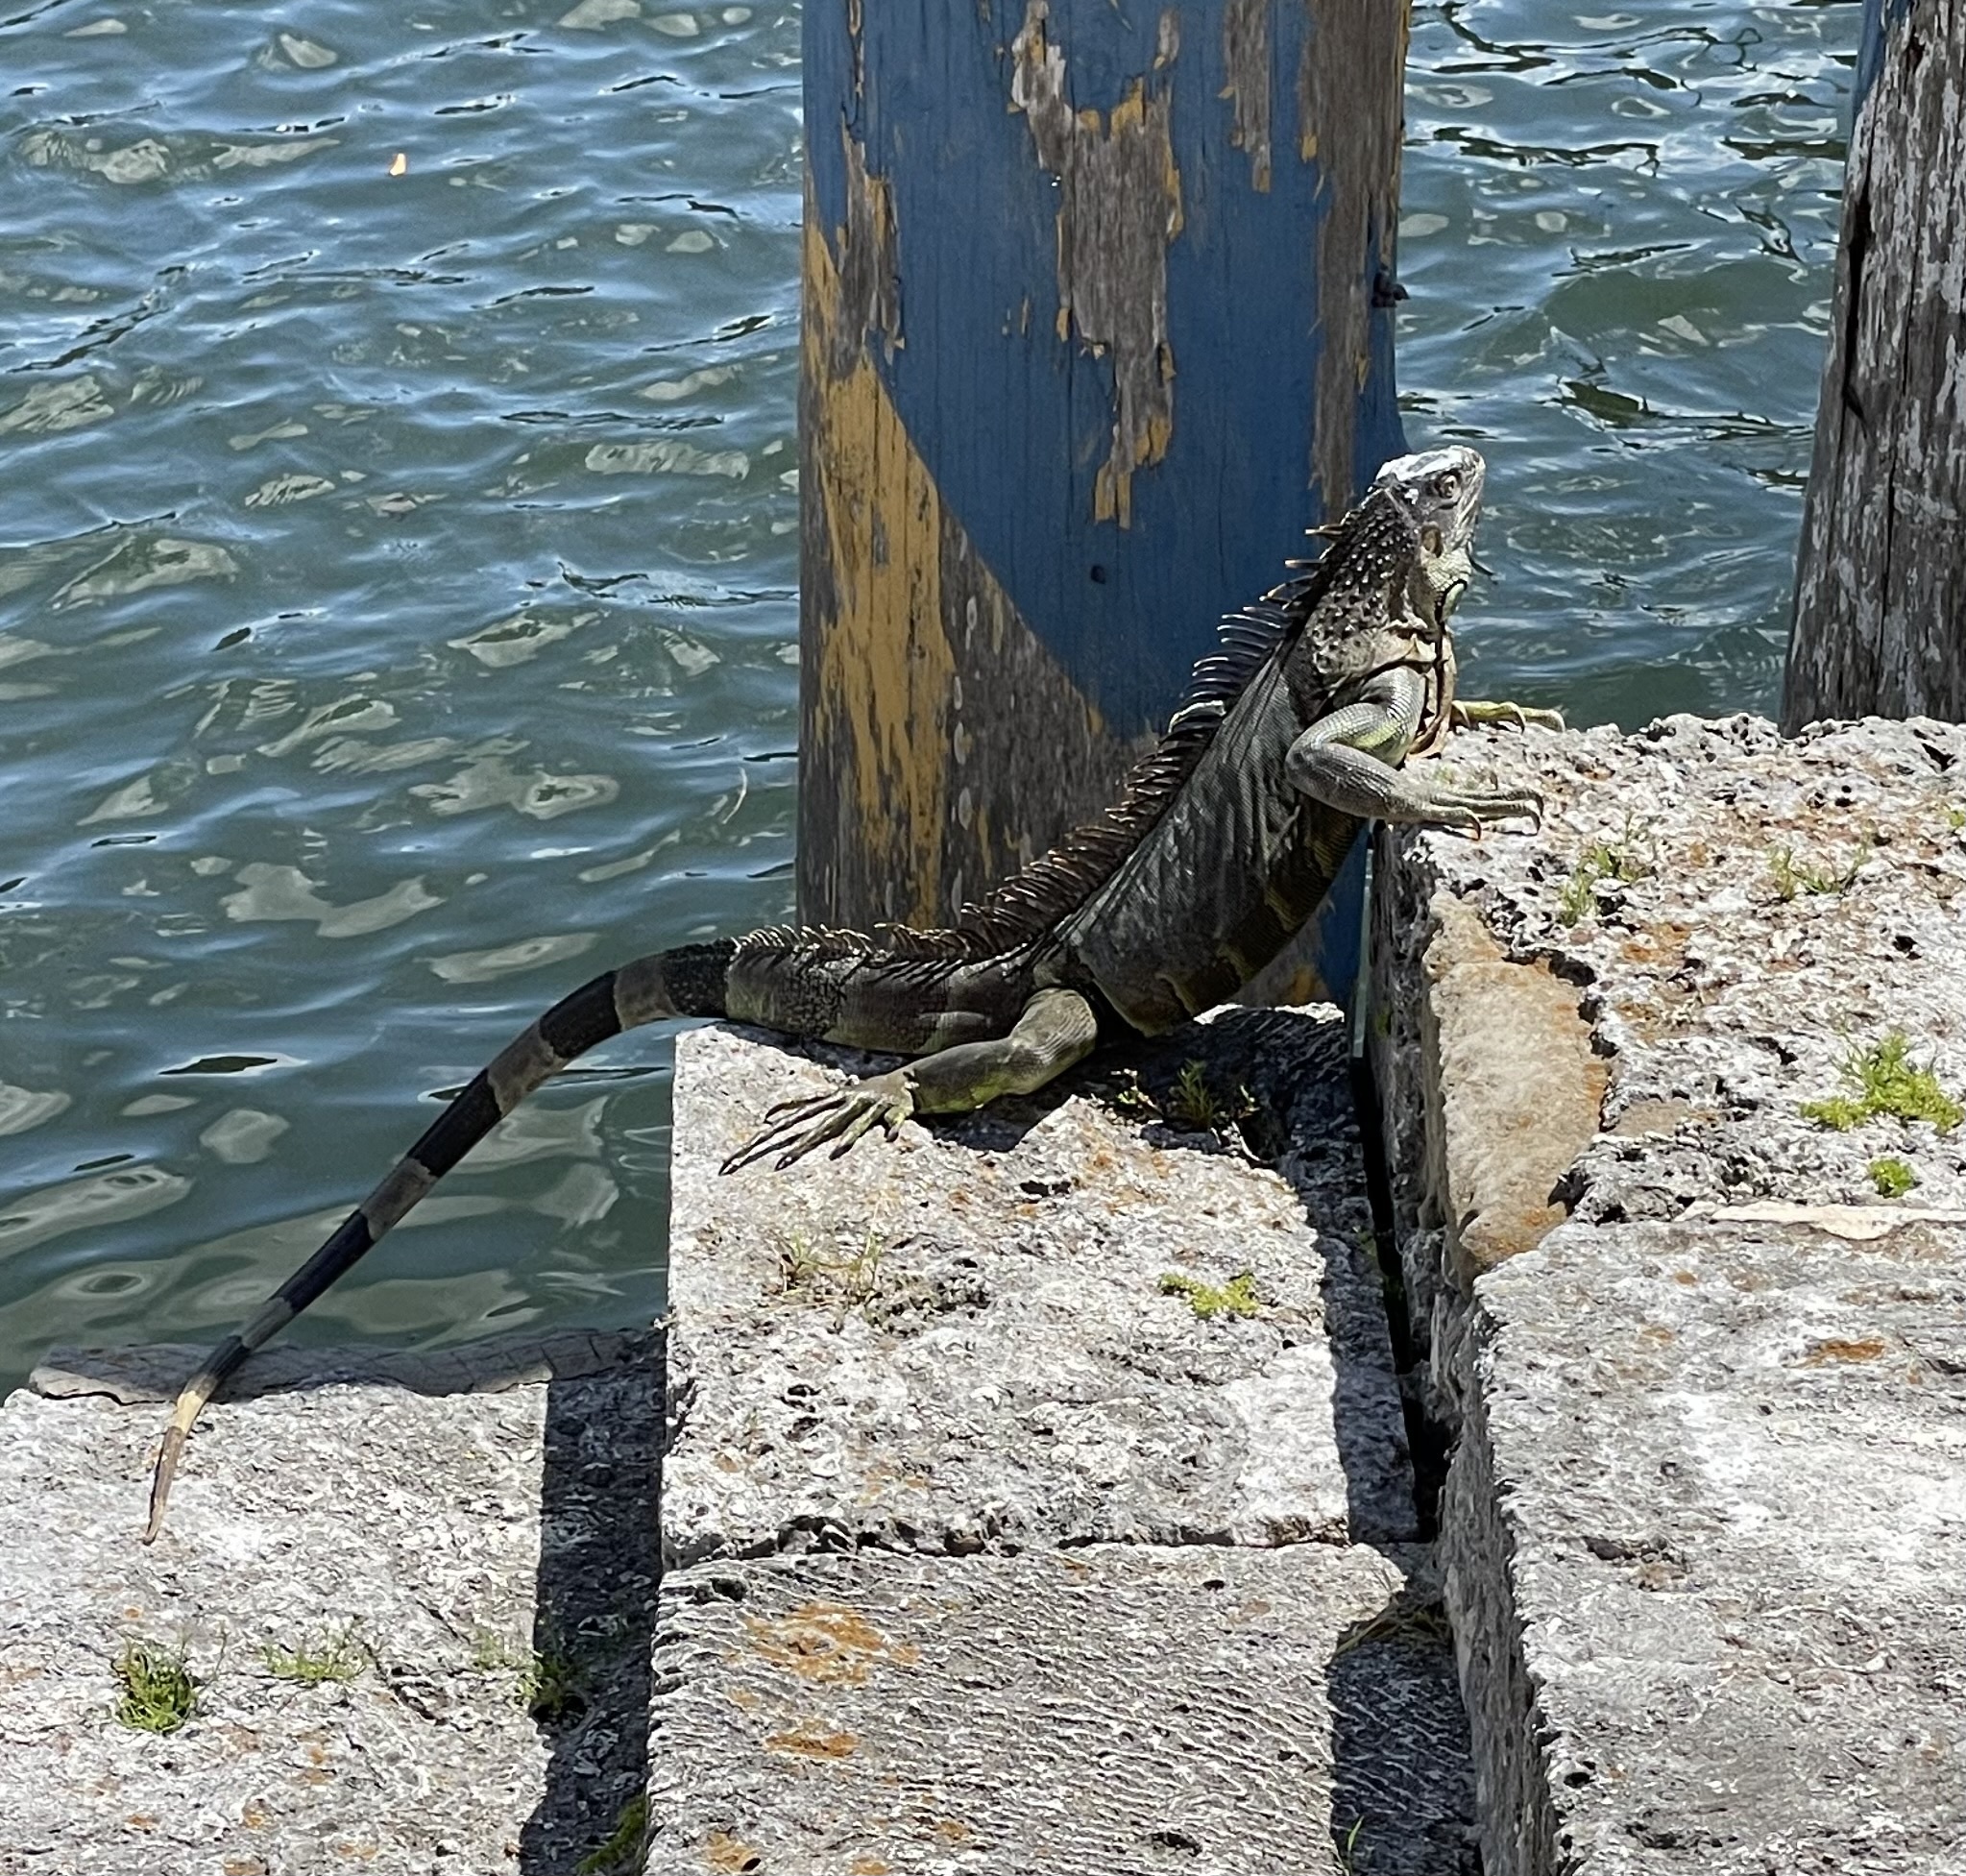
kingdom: Animalia
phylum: Chordata
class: Squamata
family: Iguanidae
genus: Iguana
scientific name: Iguana iguana
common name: Green iguana
